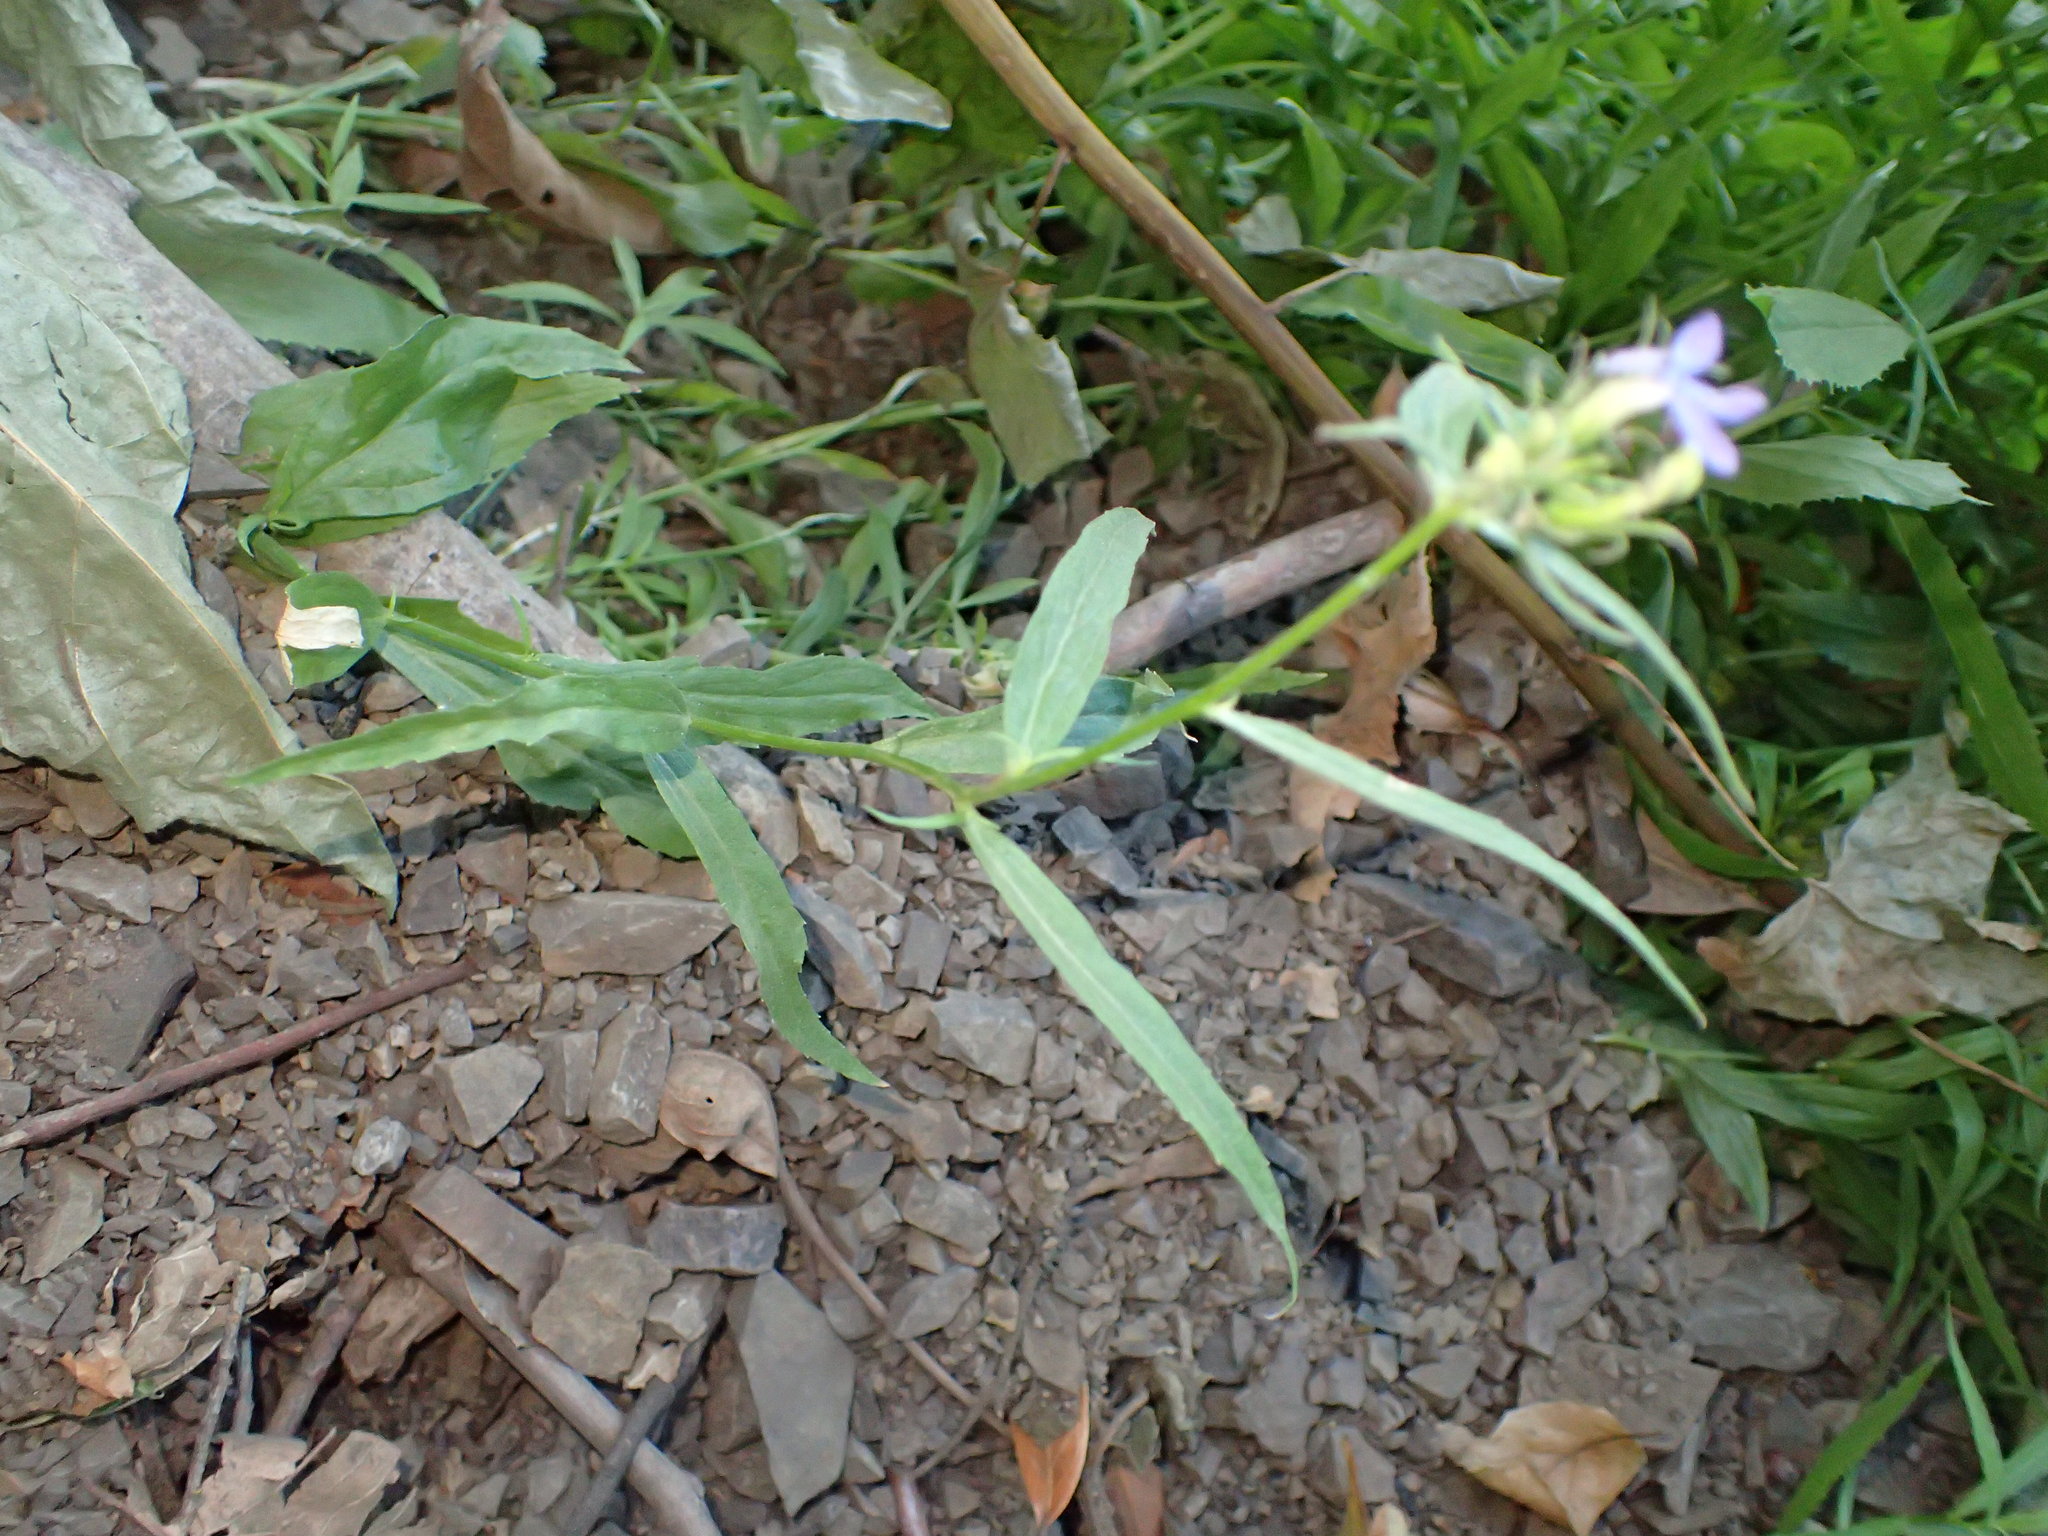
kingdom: Plantae
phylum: Tracheophyta
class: Magnoliopsida
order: Asterales
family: Campanulaceae
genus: Palmerella
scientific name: Palmerella debilis
